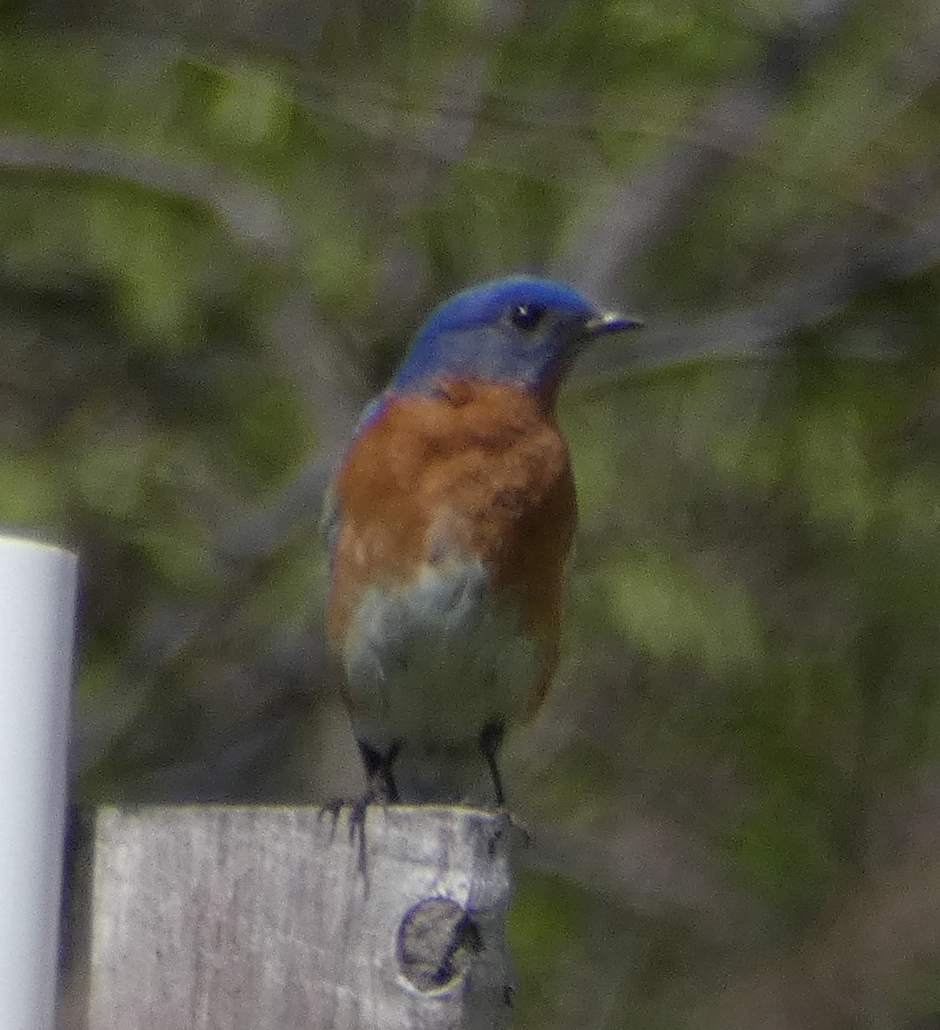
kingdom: Animalia
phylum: Chordata
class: Aves
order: Passeriformes
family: Turdidae
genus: Sialia
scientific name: Sialia sialis
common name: Eastern bluebird
